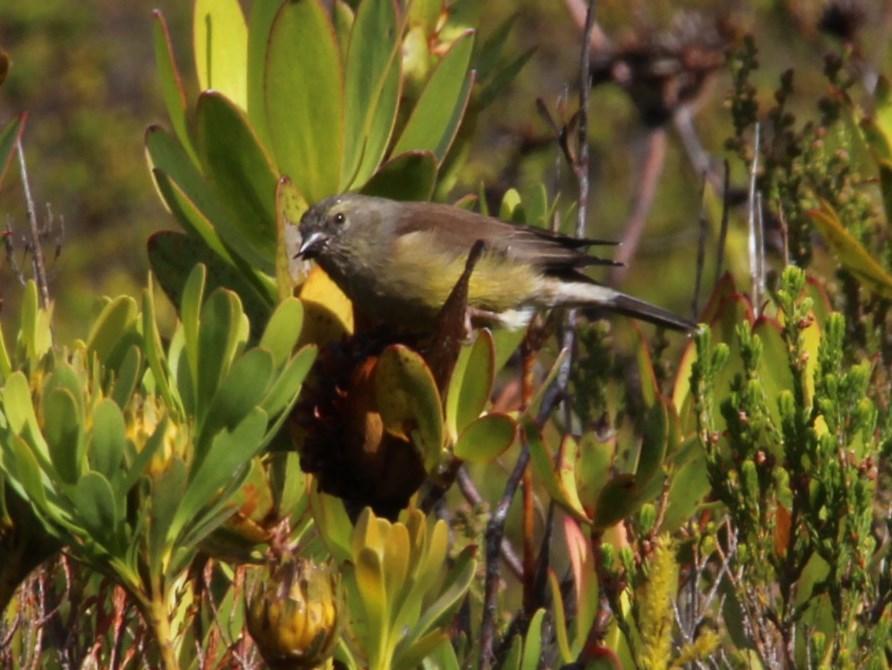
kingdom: Animalia
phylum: Chordata
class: Aves
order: Passeriformes
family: Fringillidae
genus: Crithagra
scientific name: Crithagra totta
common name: Cape siskin
